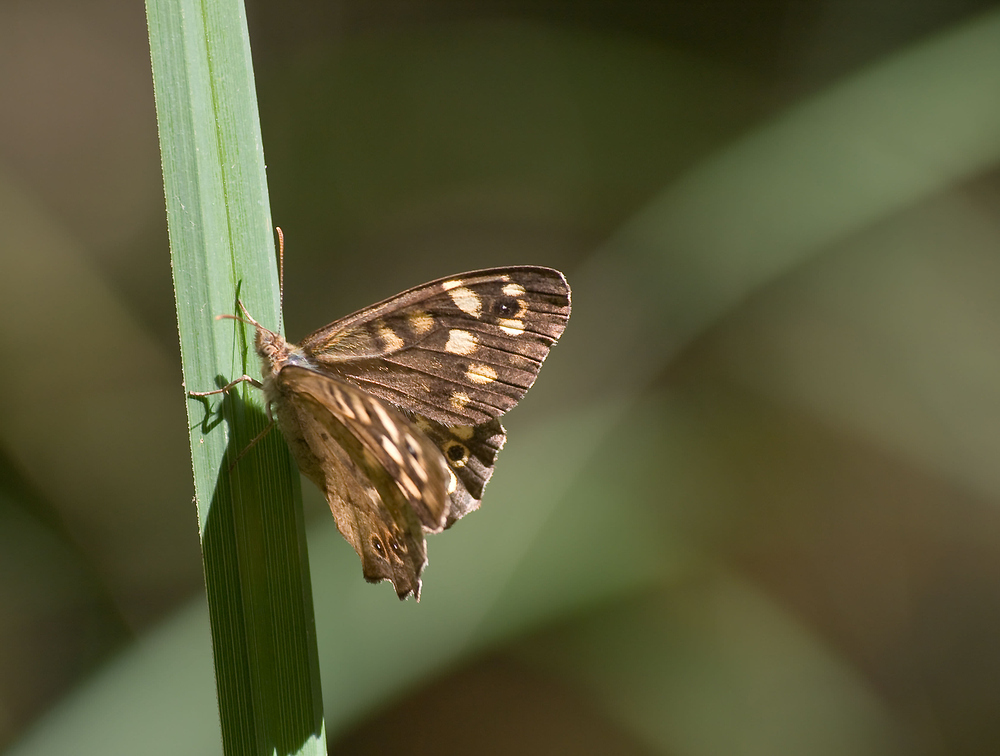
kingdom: Animalia
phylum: Arthropoda
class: Insecta
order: Lepidoptera
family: Nymphalidae
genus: Pararge
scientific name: Pararge aegeria
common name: Speckled wood
